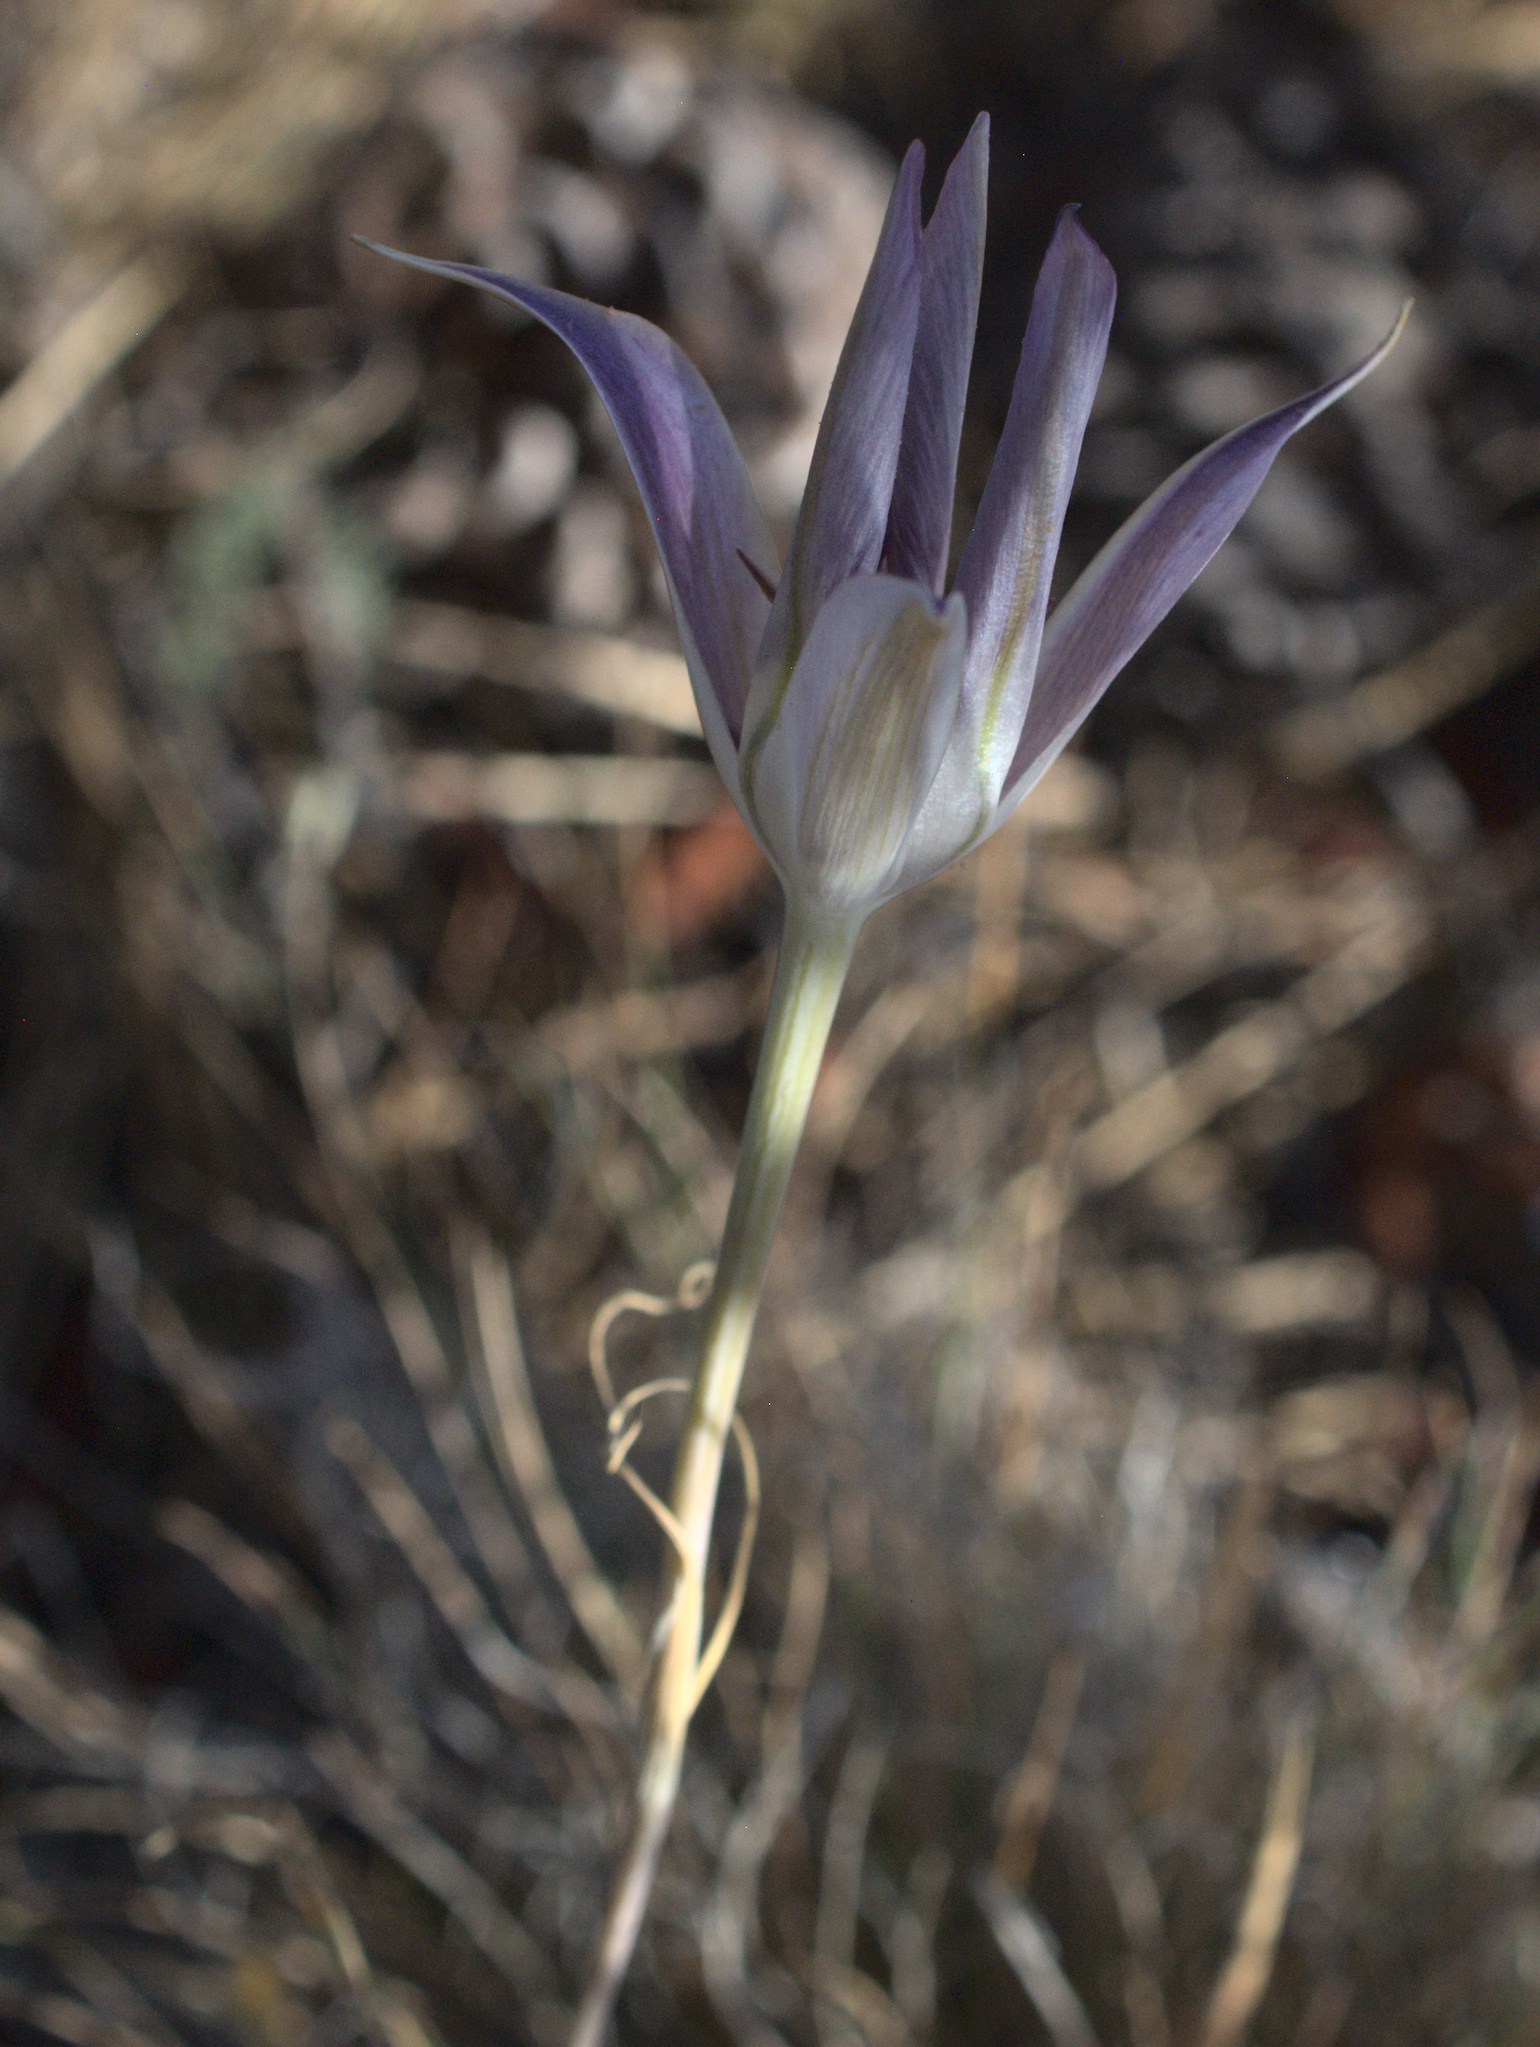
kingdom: Plantae
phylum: Tracheophyta
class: Liliopsida
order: Liliales
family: Liliaceae
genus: Calochortus
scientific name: Calochortus macrocarpus
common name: Green-band mariposa lily
